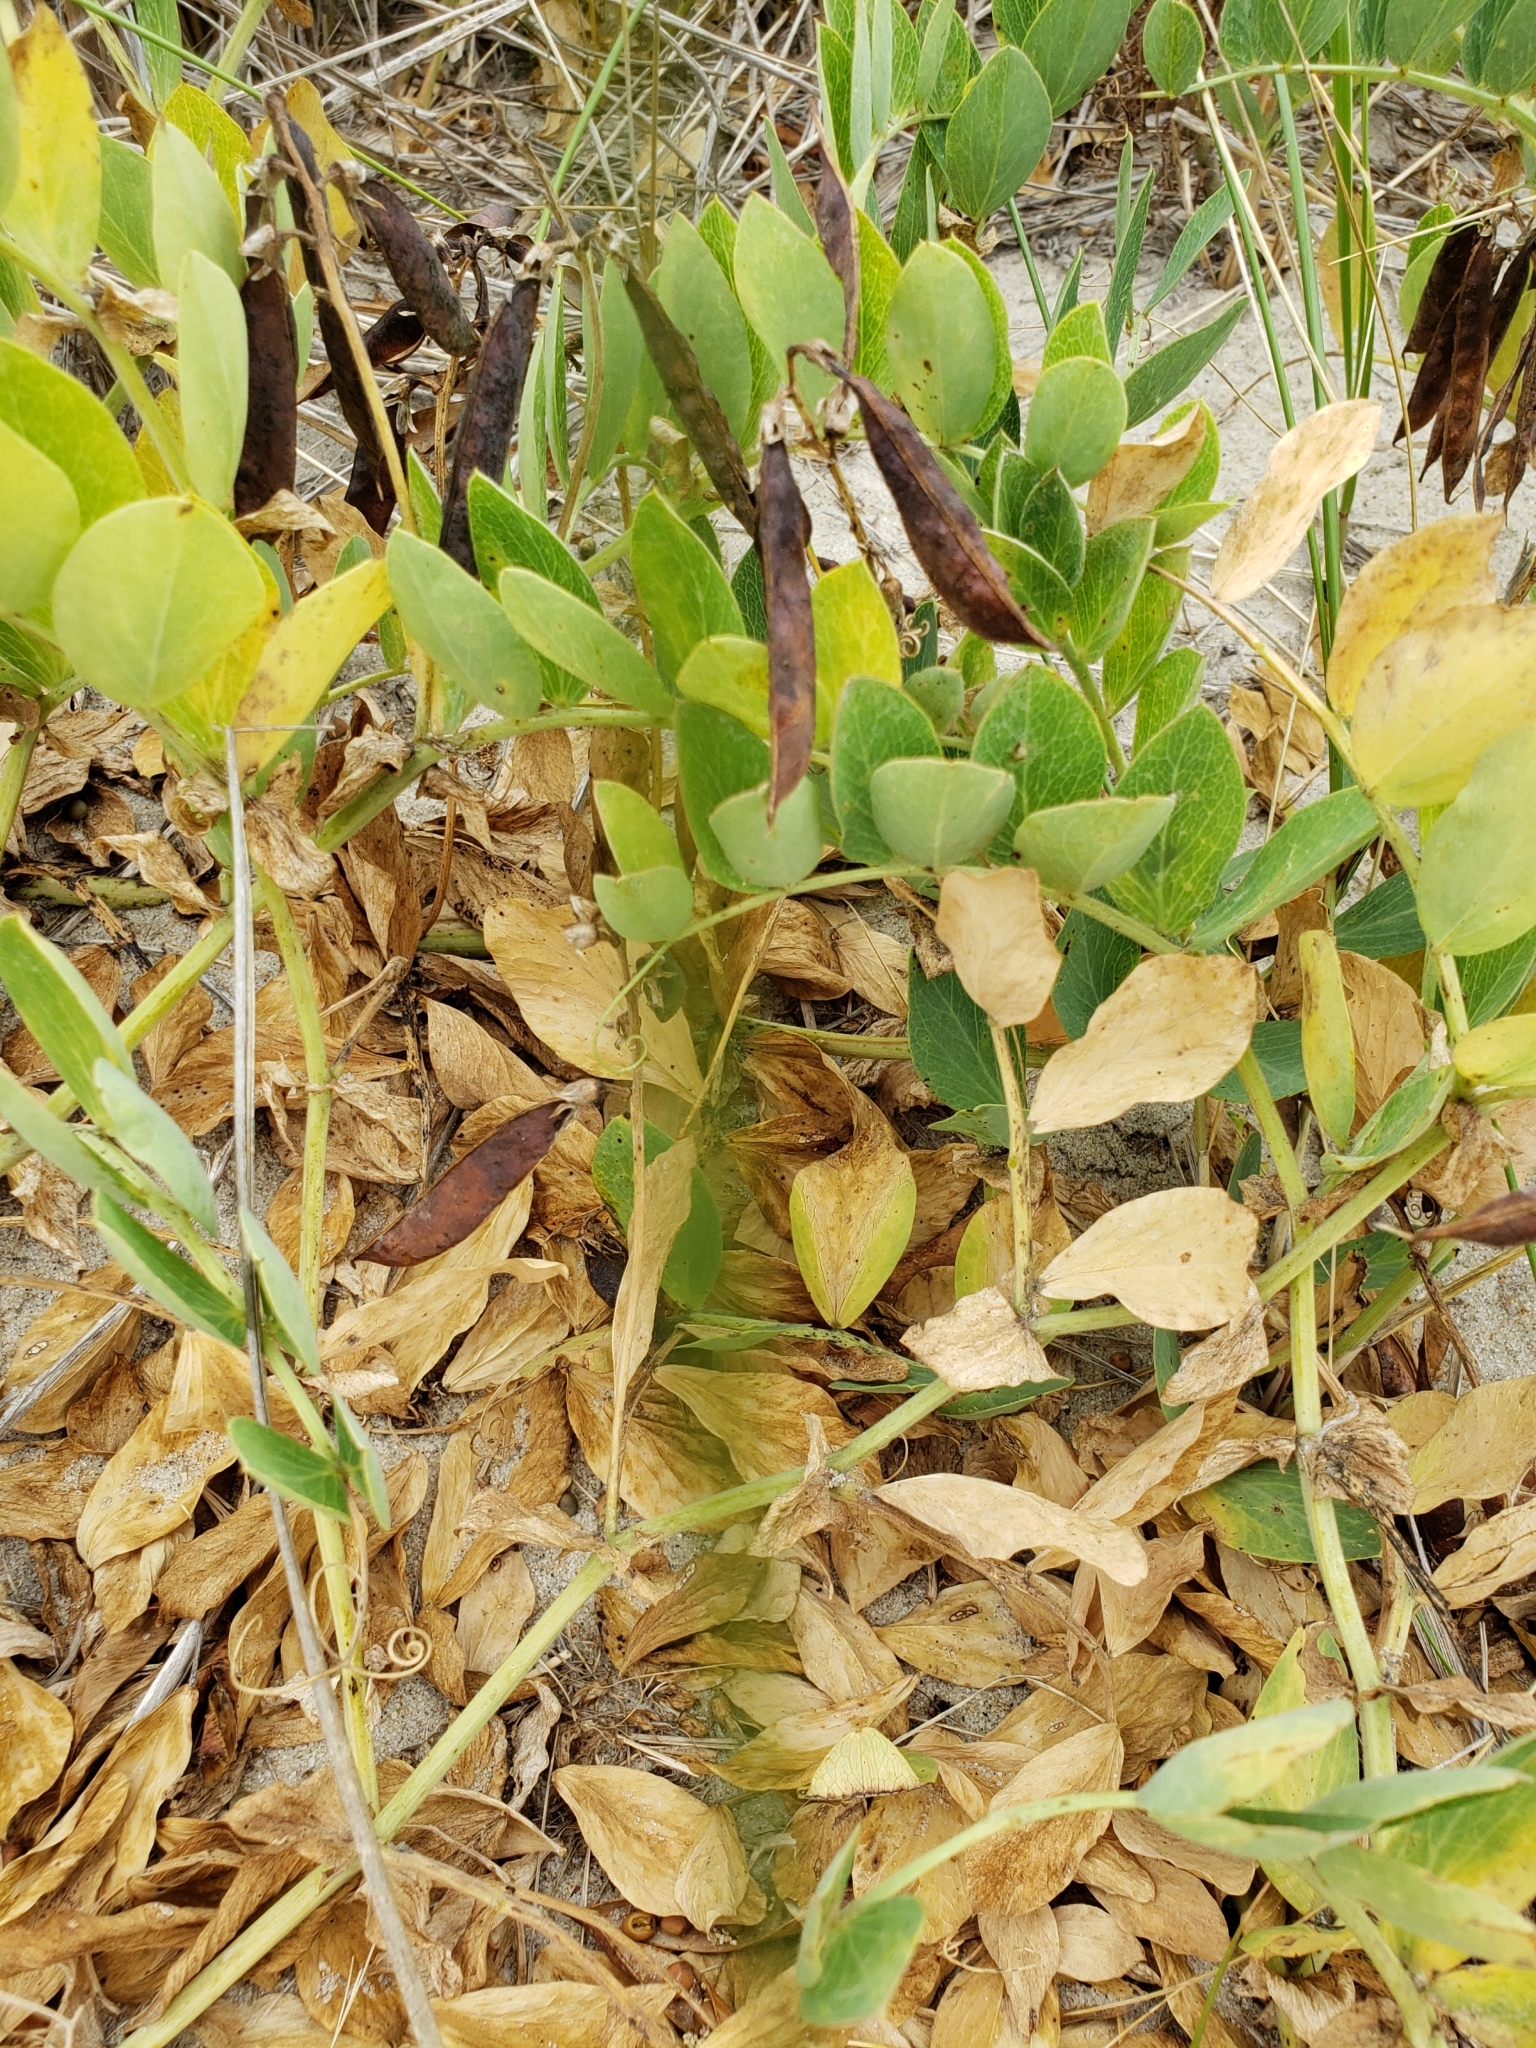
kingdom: Plantae
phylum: Tracheophyta
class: Magnoliopsida
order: Fabales
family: Fabaceae
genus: Lathyrus
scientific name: Lathyrus japonicus
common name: Sea pea
